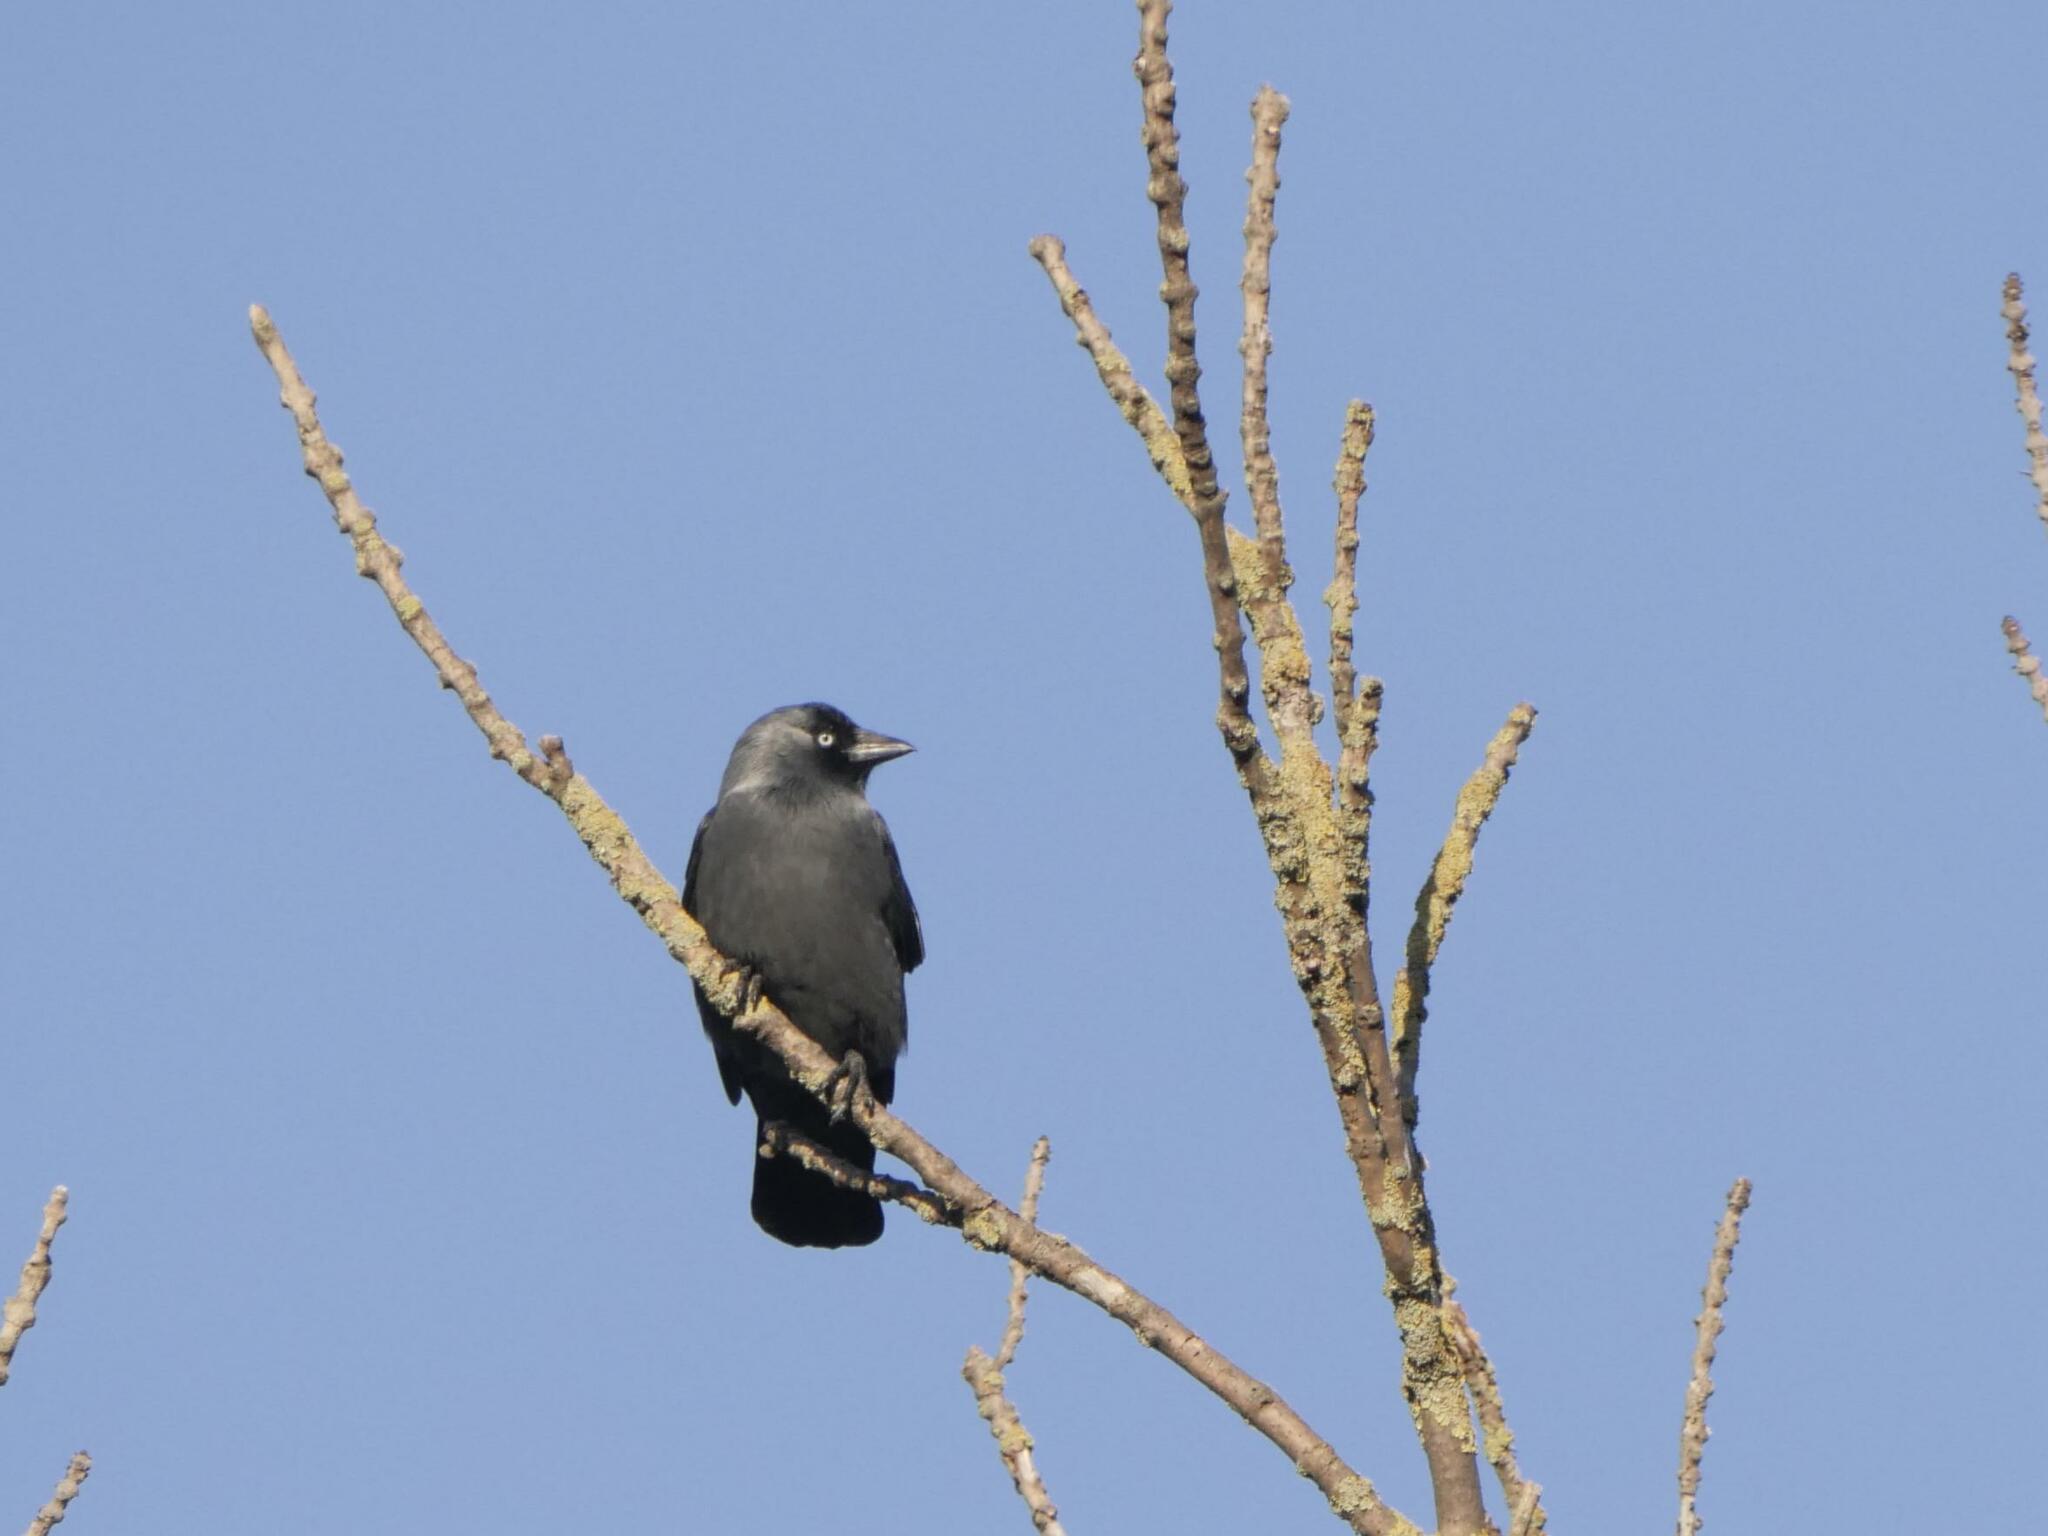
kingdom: Animalia
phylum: Chordata
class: Aves
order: Passeriformes
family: Corvidae
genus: Coloeus
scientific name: Coloeus monedula
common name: Western jackdaw
